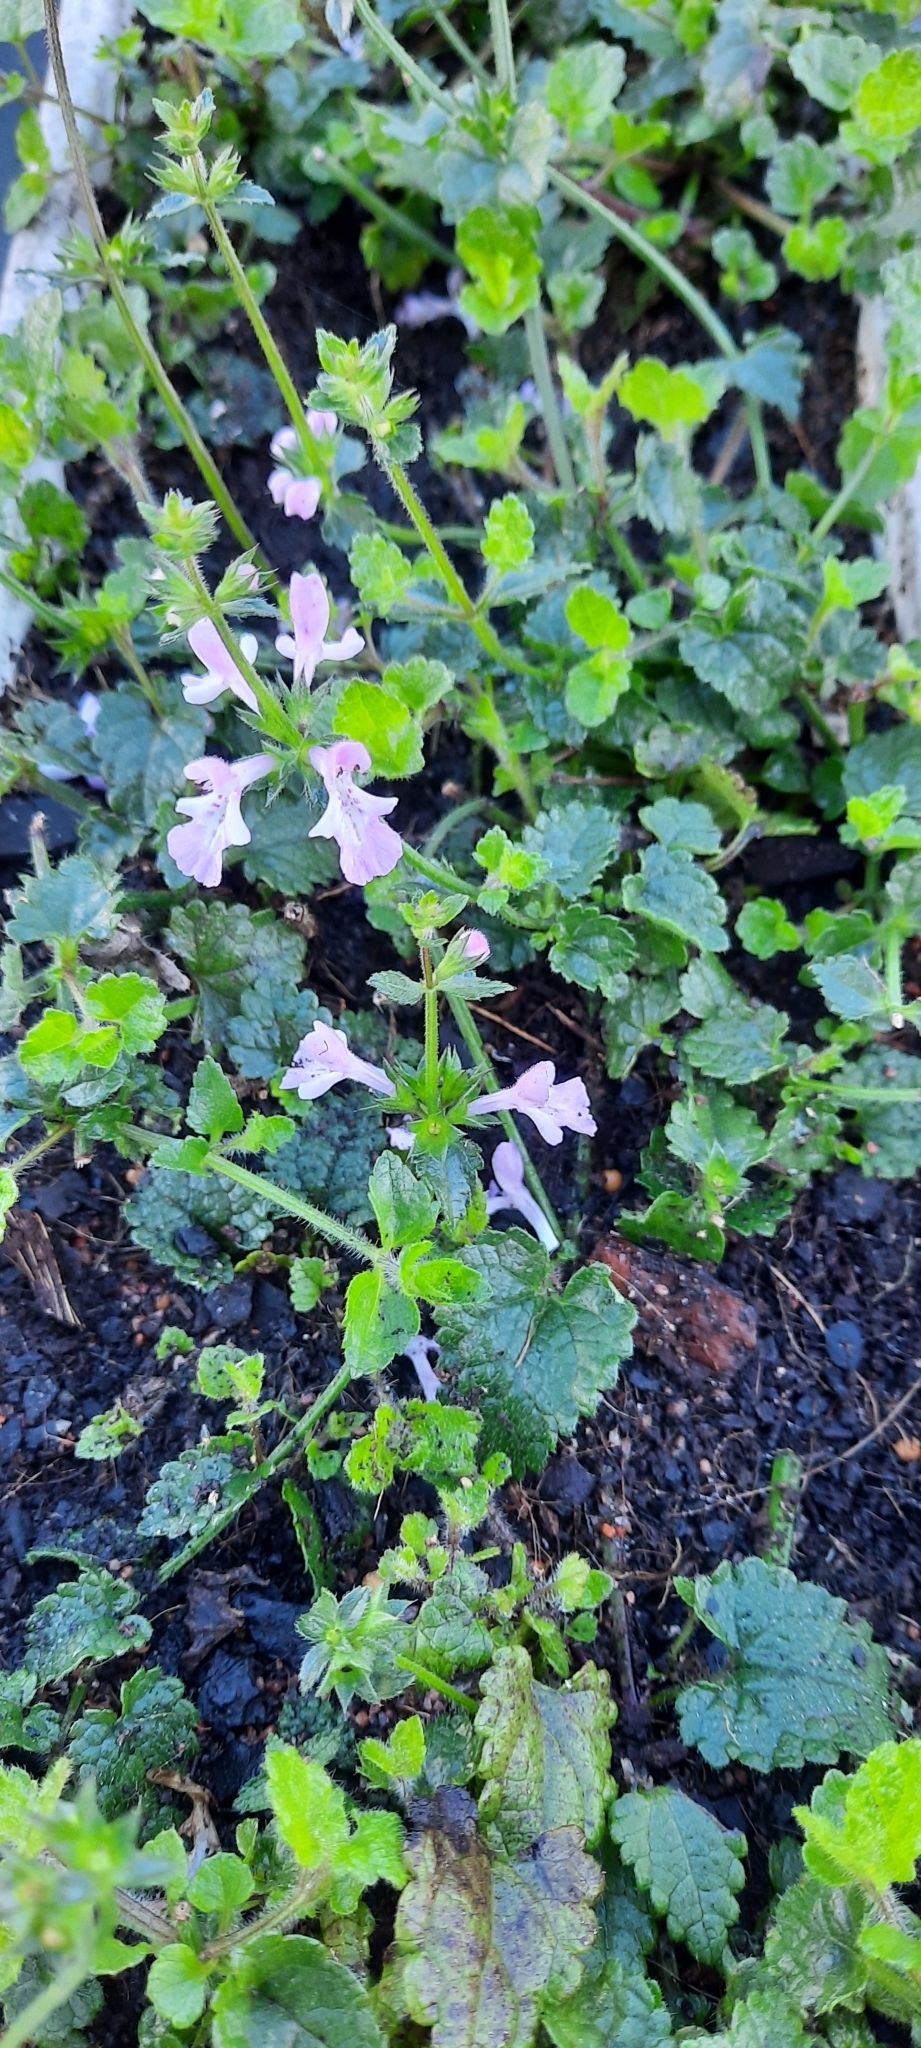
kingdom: Plantae
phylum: Tracheophyta
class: Magnoliopsida
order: Lamiales
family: Lamiaceae
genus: Stachys
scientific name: Stachys aethiopica
